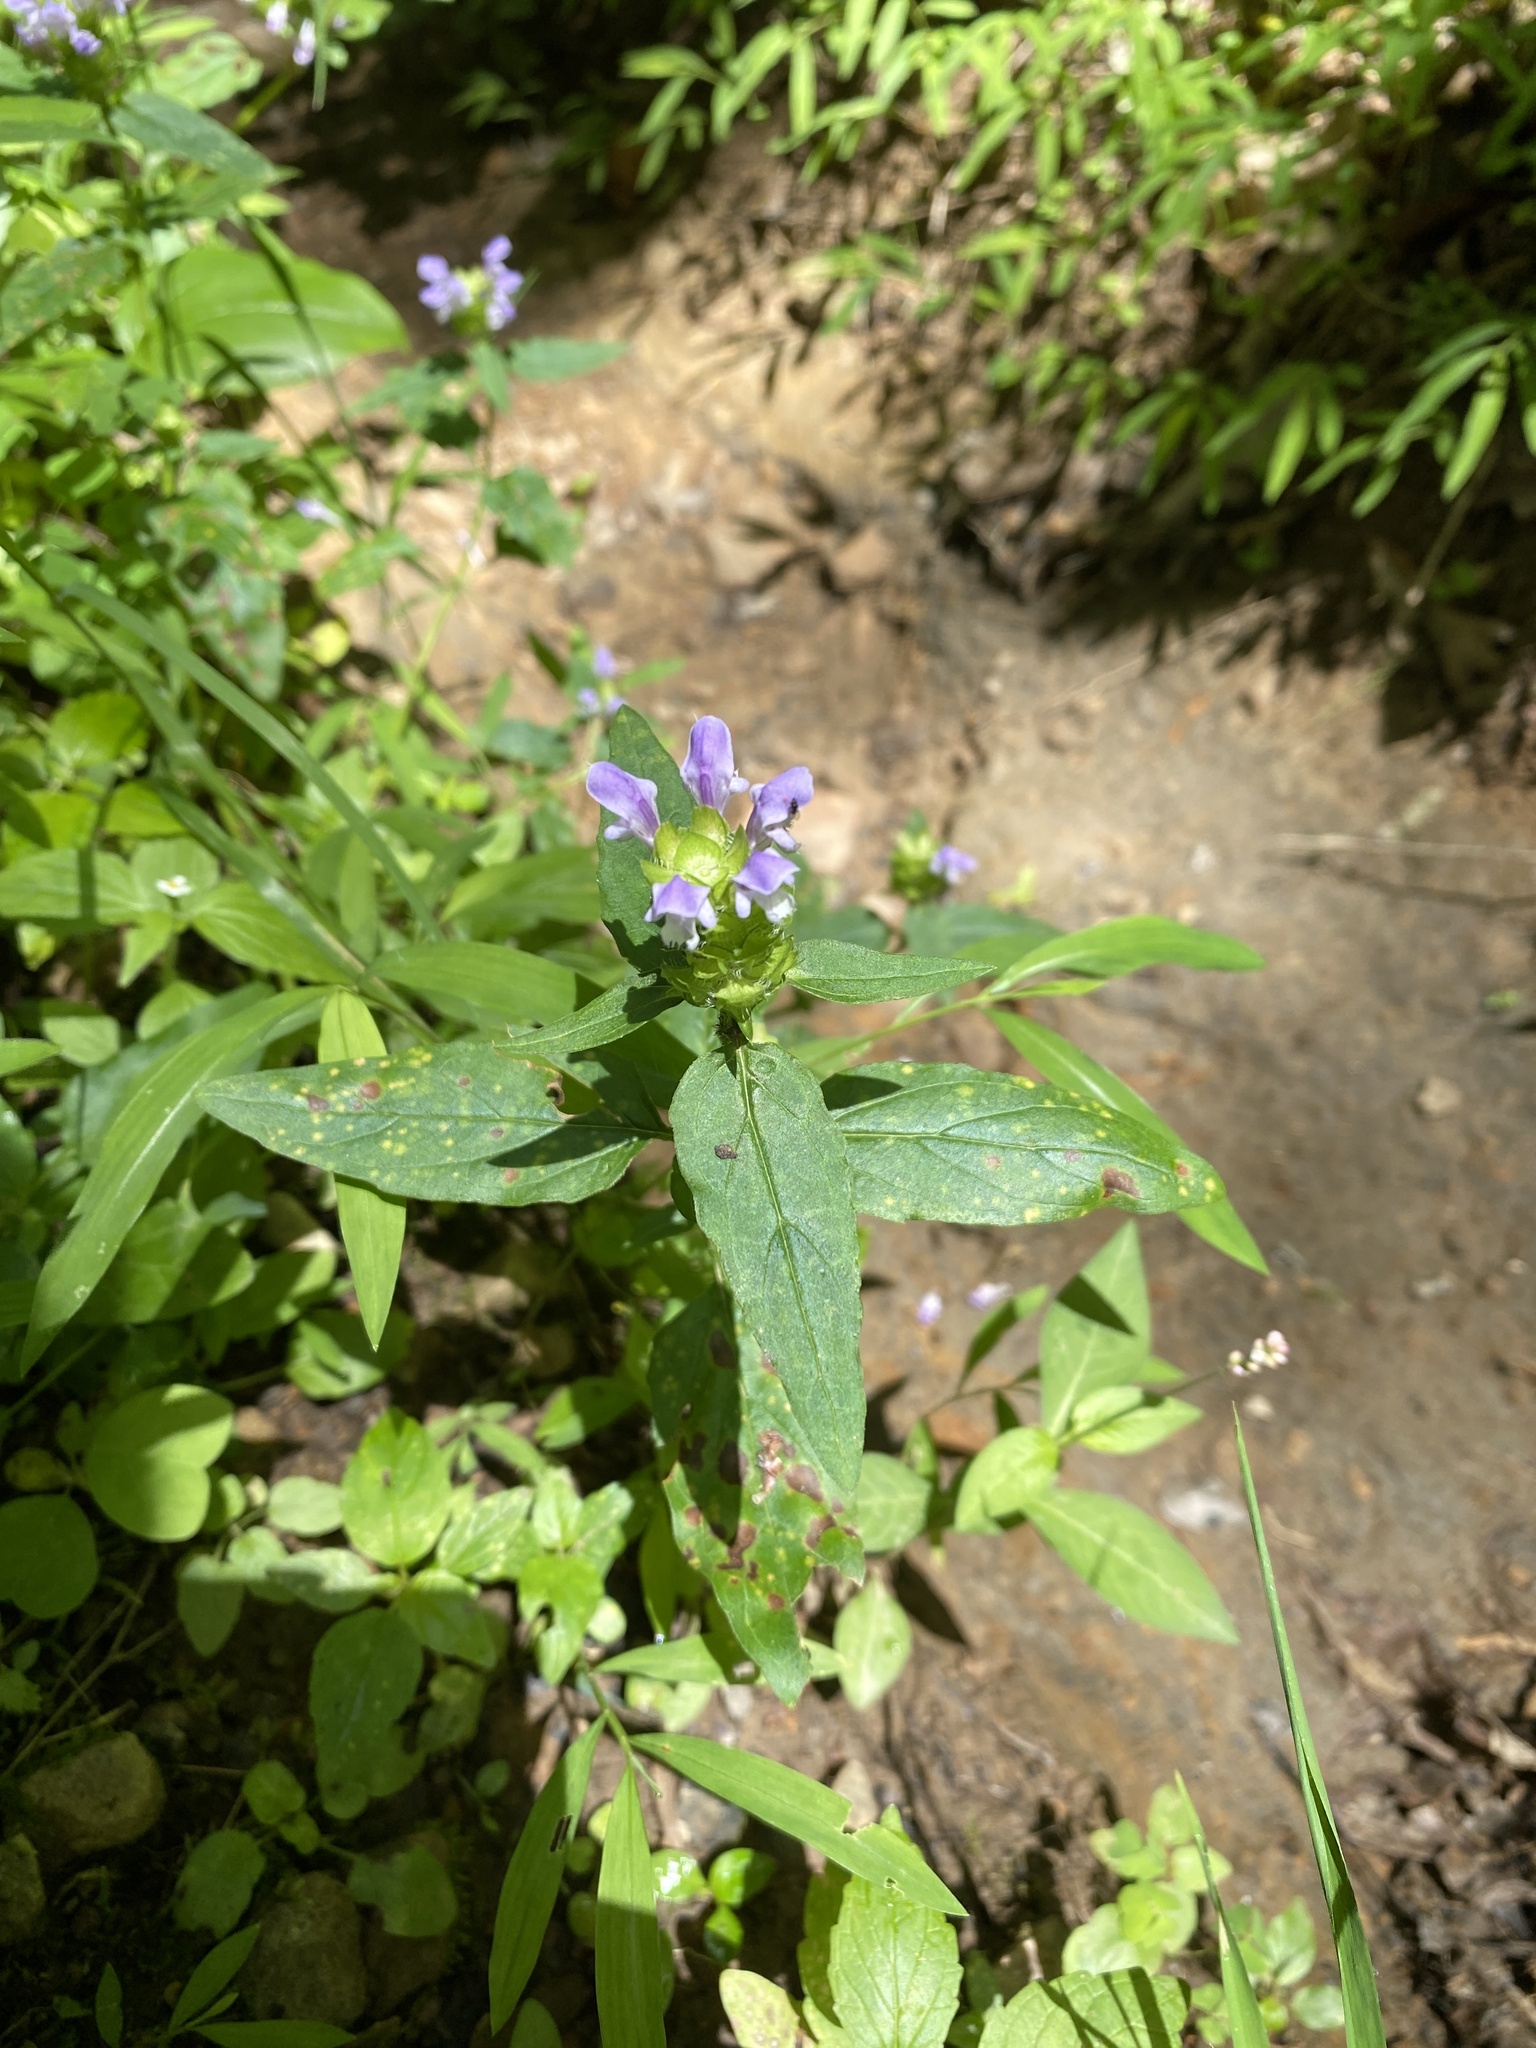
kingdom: Plantae
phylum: Tracheophyta
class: Magnoliopsida
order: Lamiales
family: Lamiaceae
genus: Prunella
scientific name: Prunella vulgaris
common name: Heal-all
